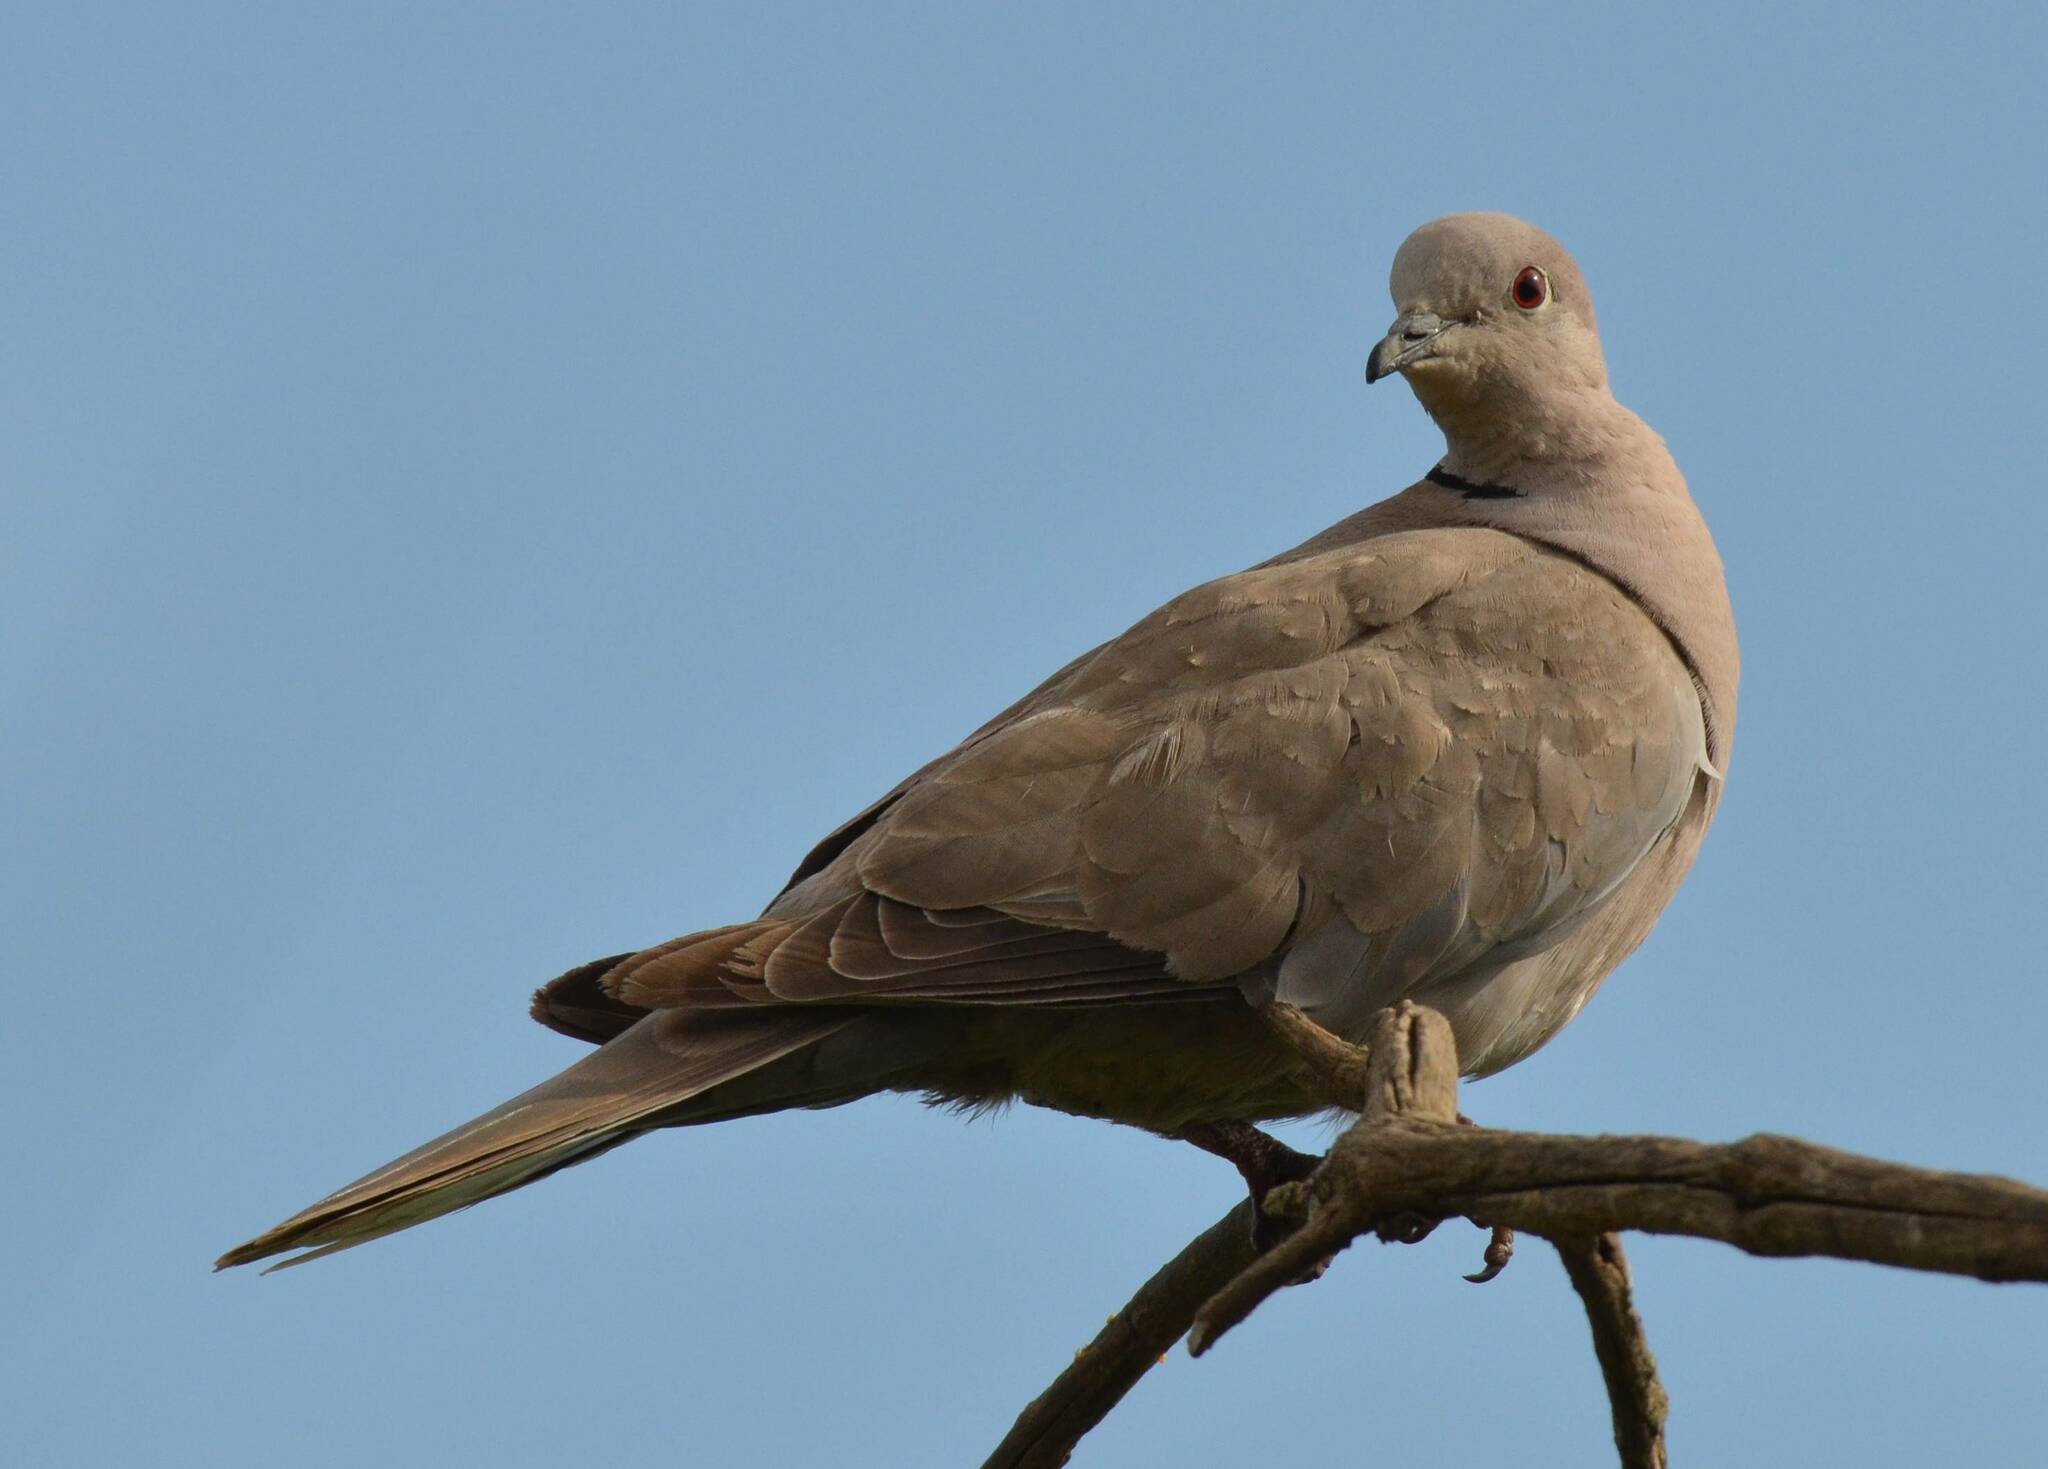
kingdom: Animalia
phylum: Chordata
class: Aves
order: Columbiformes
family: Columbidae
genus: Streptopelia
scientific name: Streptopelia decaocto
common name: Eurasian collared dove
